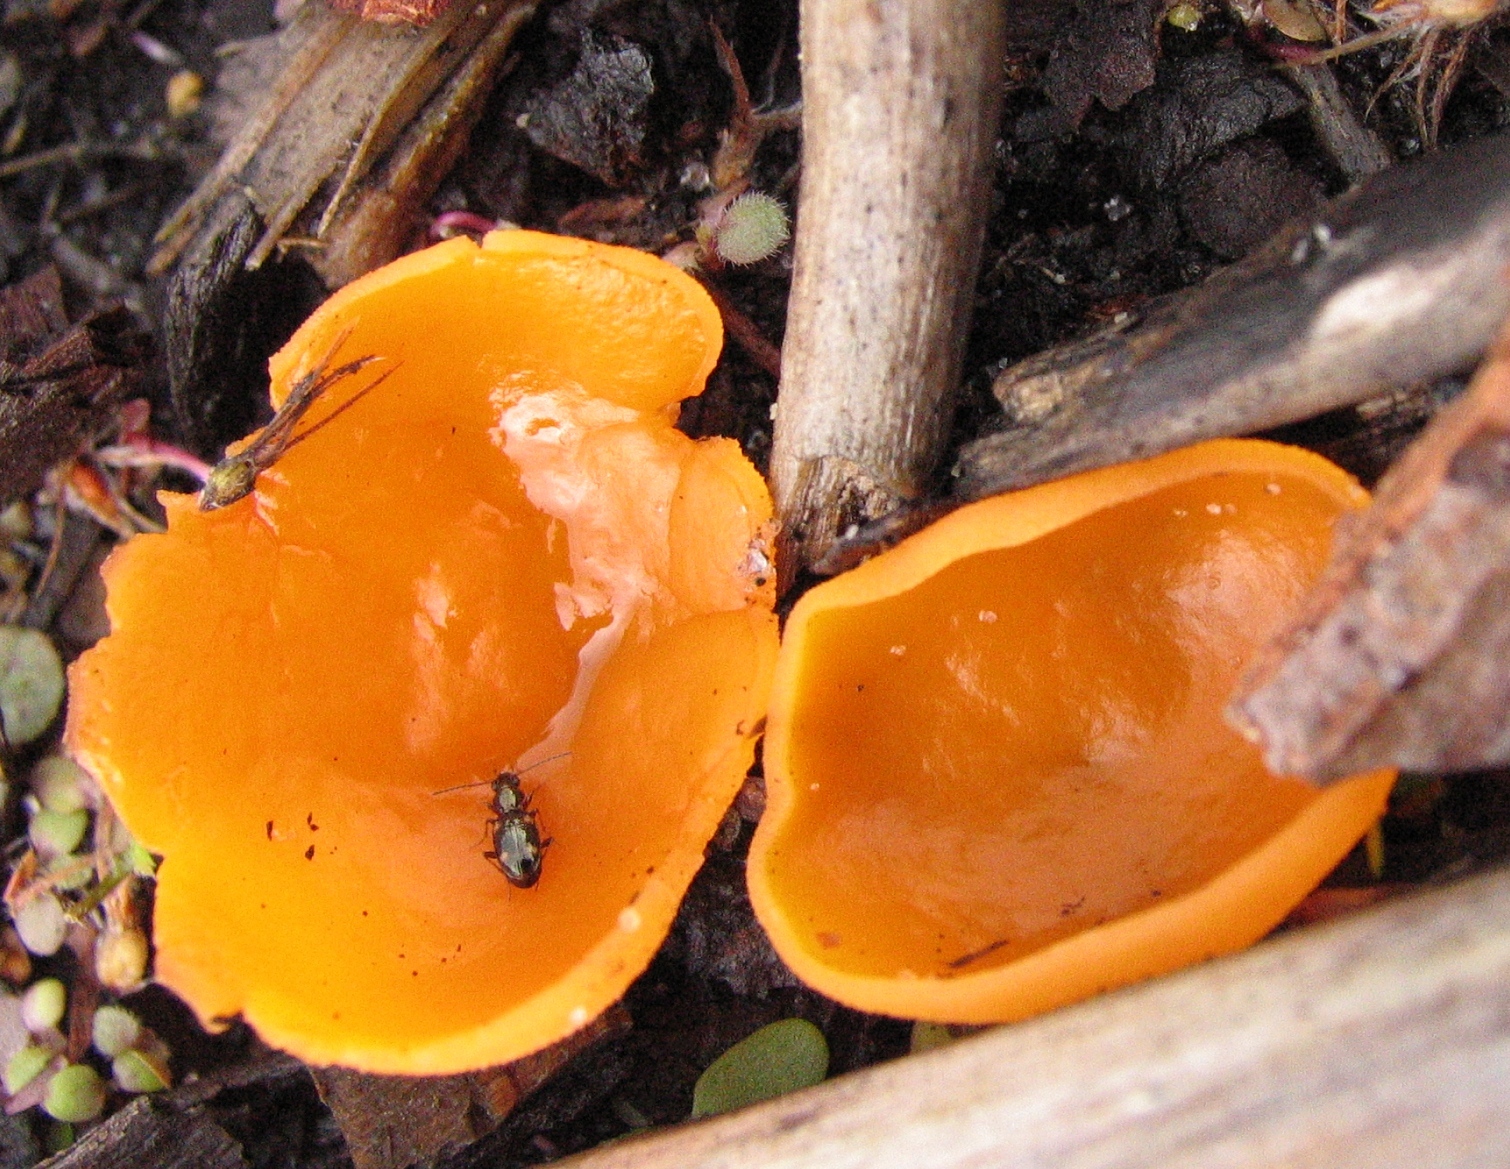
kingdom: Fungi
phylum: Ascomycota
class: Pezizomycetes
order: Pezizales
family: Pyronemataceae
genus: Aleuria
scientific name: Aleuria aurantia
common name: Orange peel fungus
